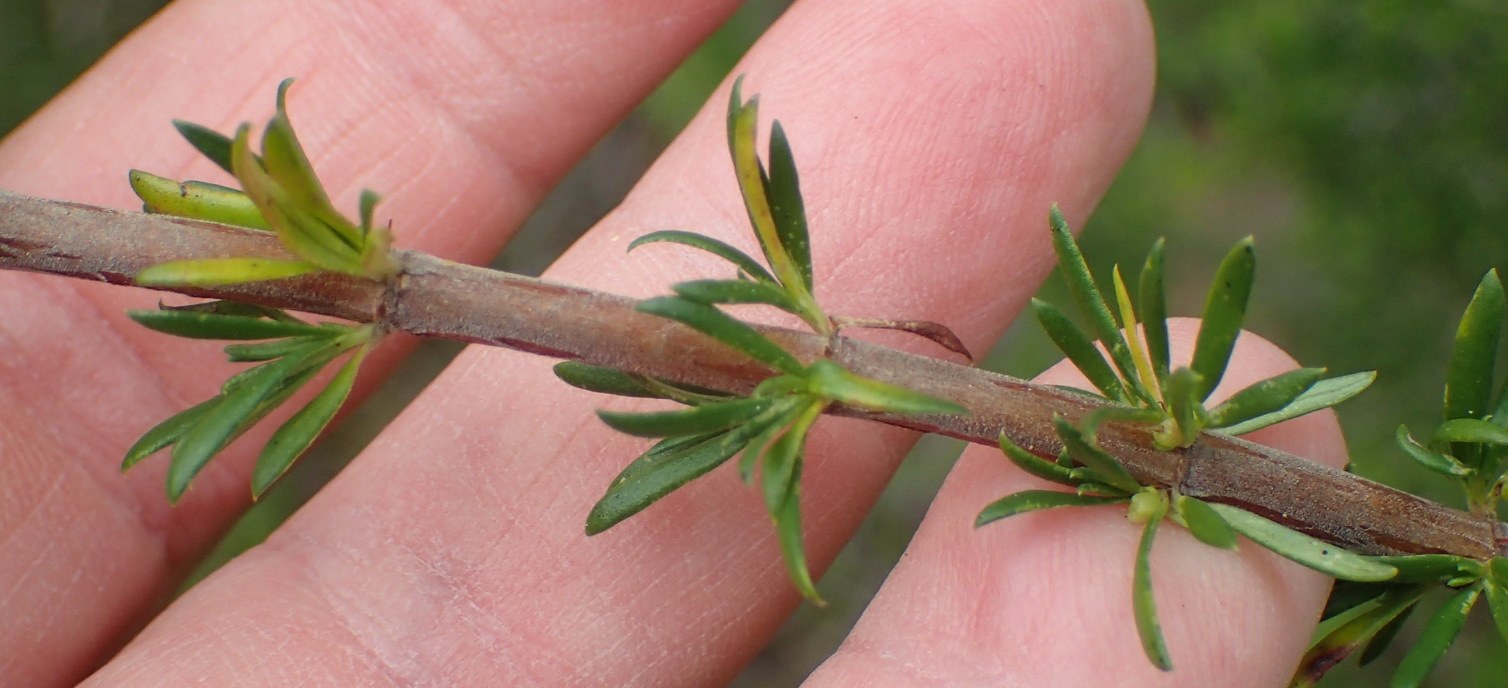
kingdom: Plantae
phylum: Tracheophyta
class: Magnoliopsida
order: Gentianales
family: Rubiaceae
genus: Anthospermum
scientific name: Anthospermum aethiopicum
